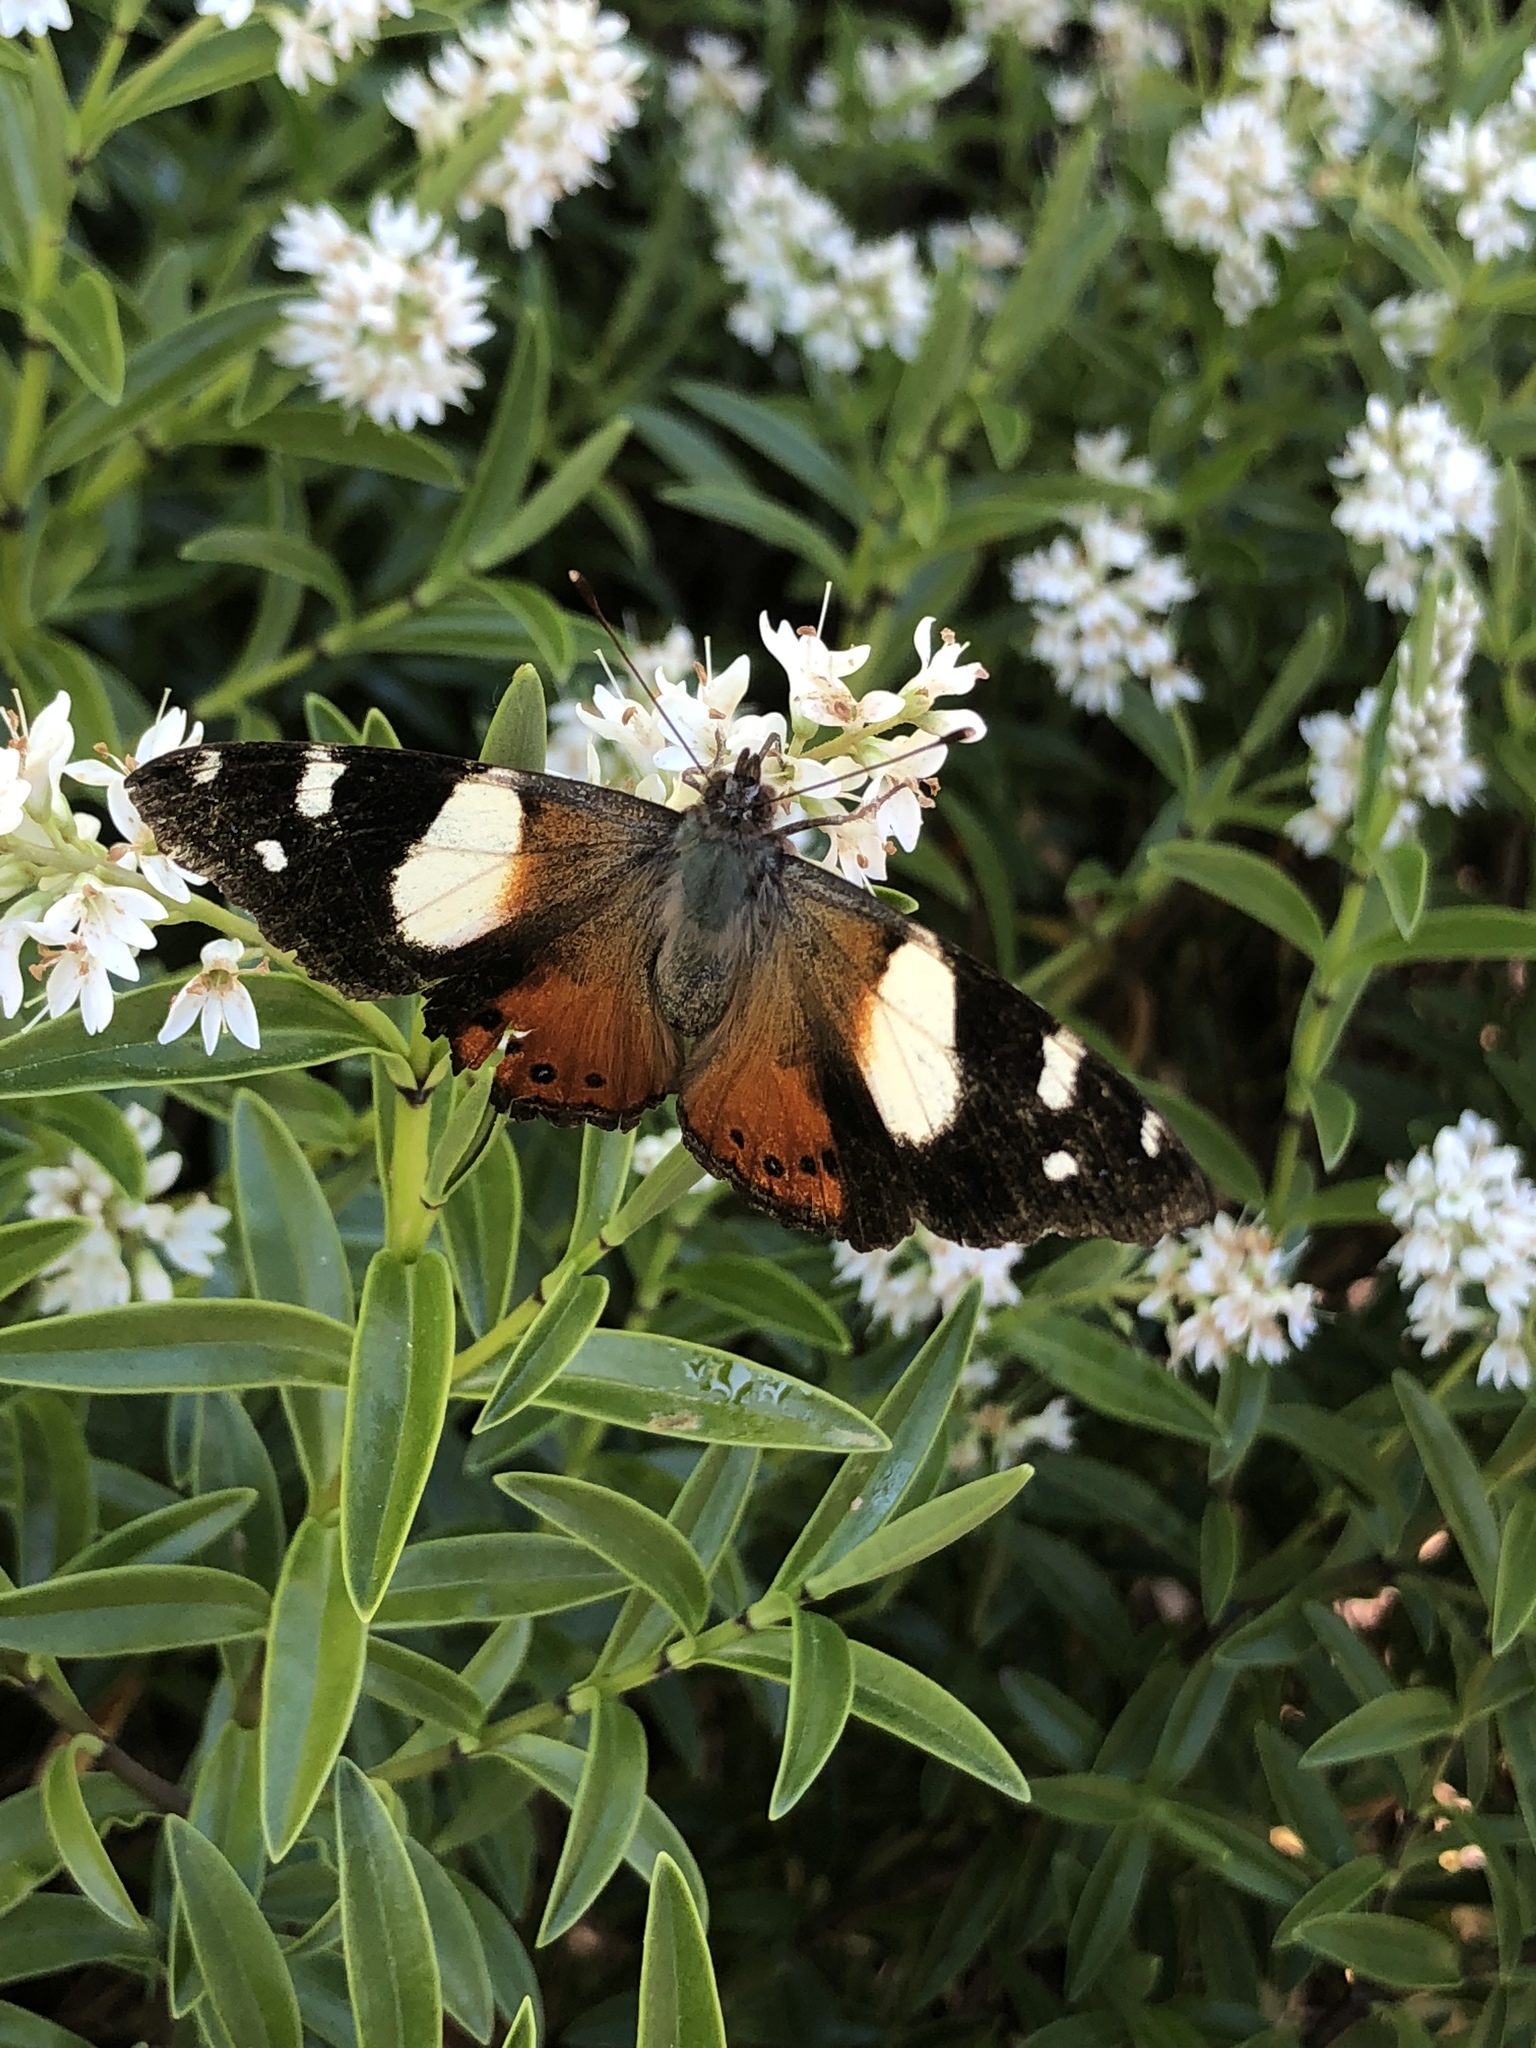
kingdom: Animalia
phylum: Arthropoda
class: Insecta
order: Lepidoptera
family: Nymphalidae
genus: Vanessa
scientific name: Vanessa itea
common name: Yellow admiral
